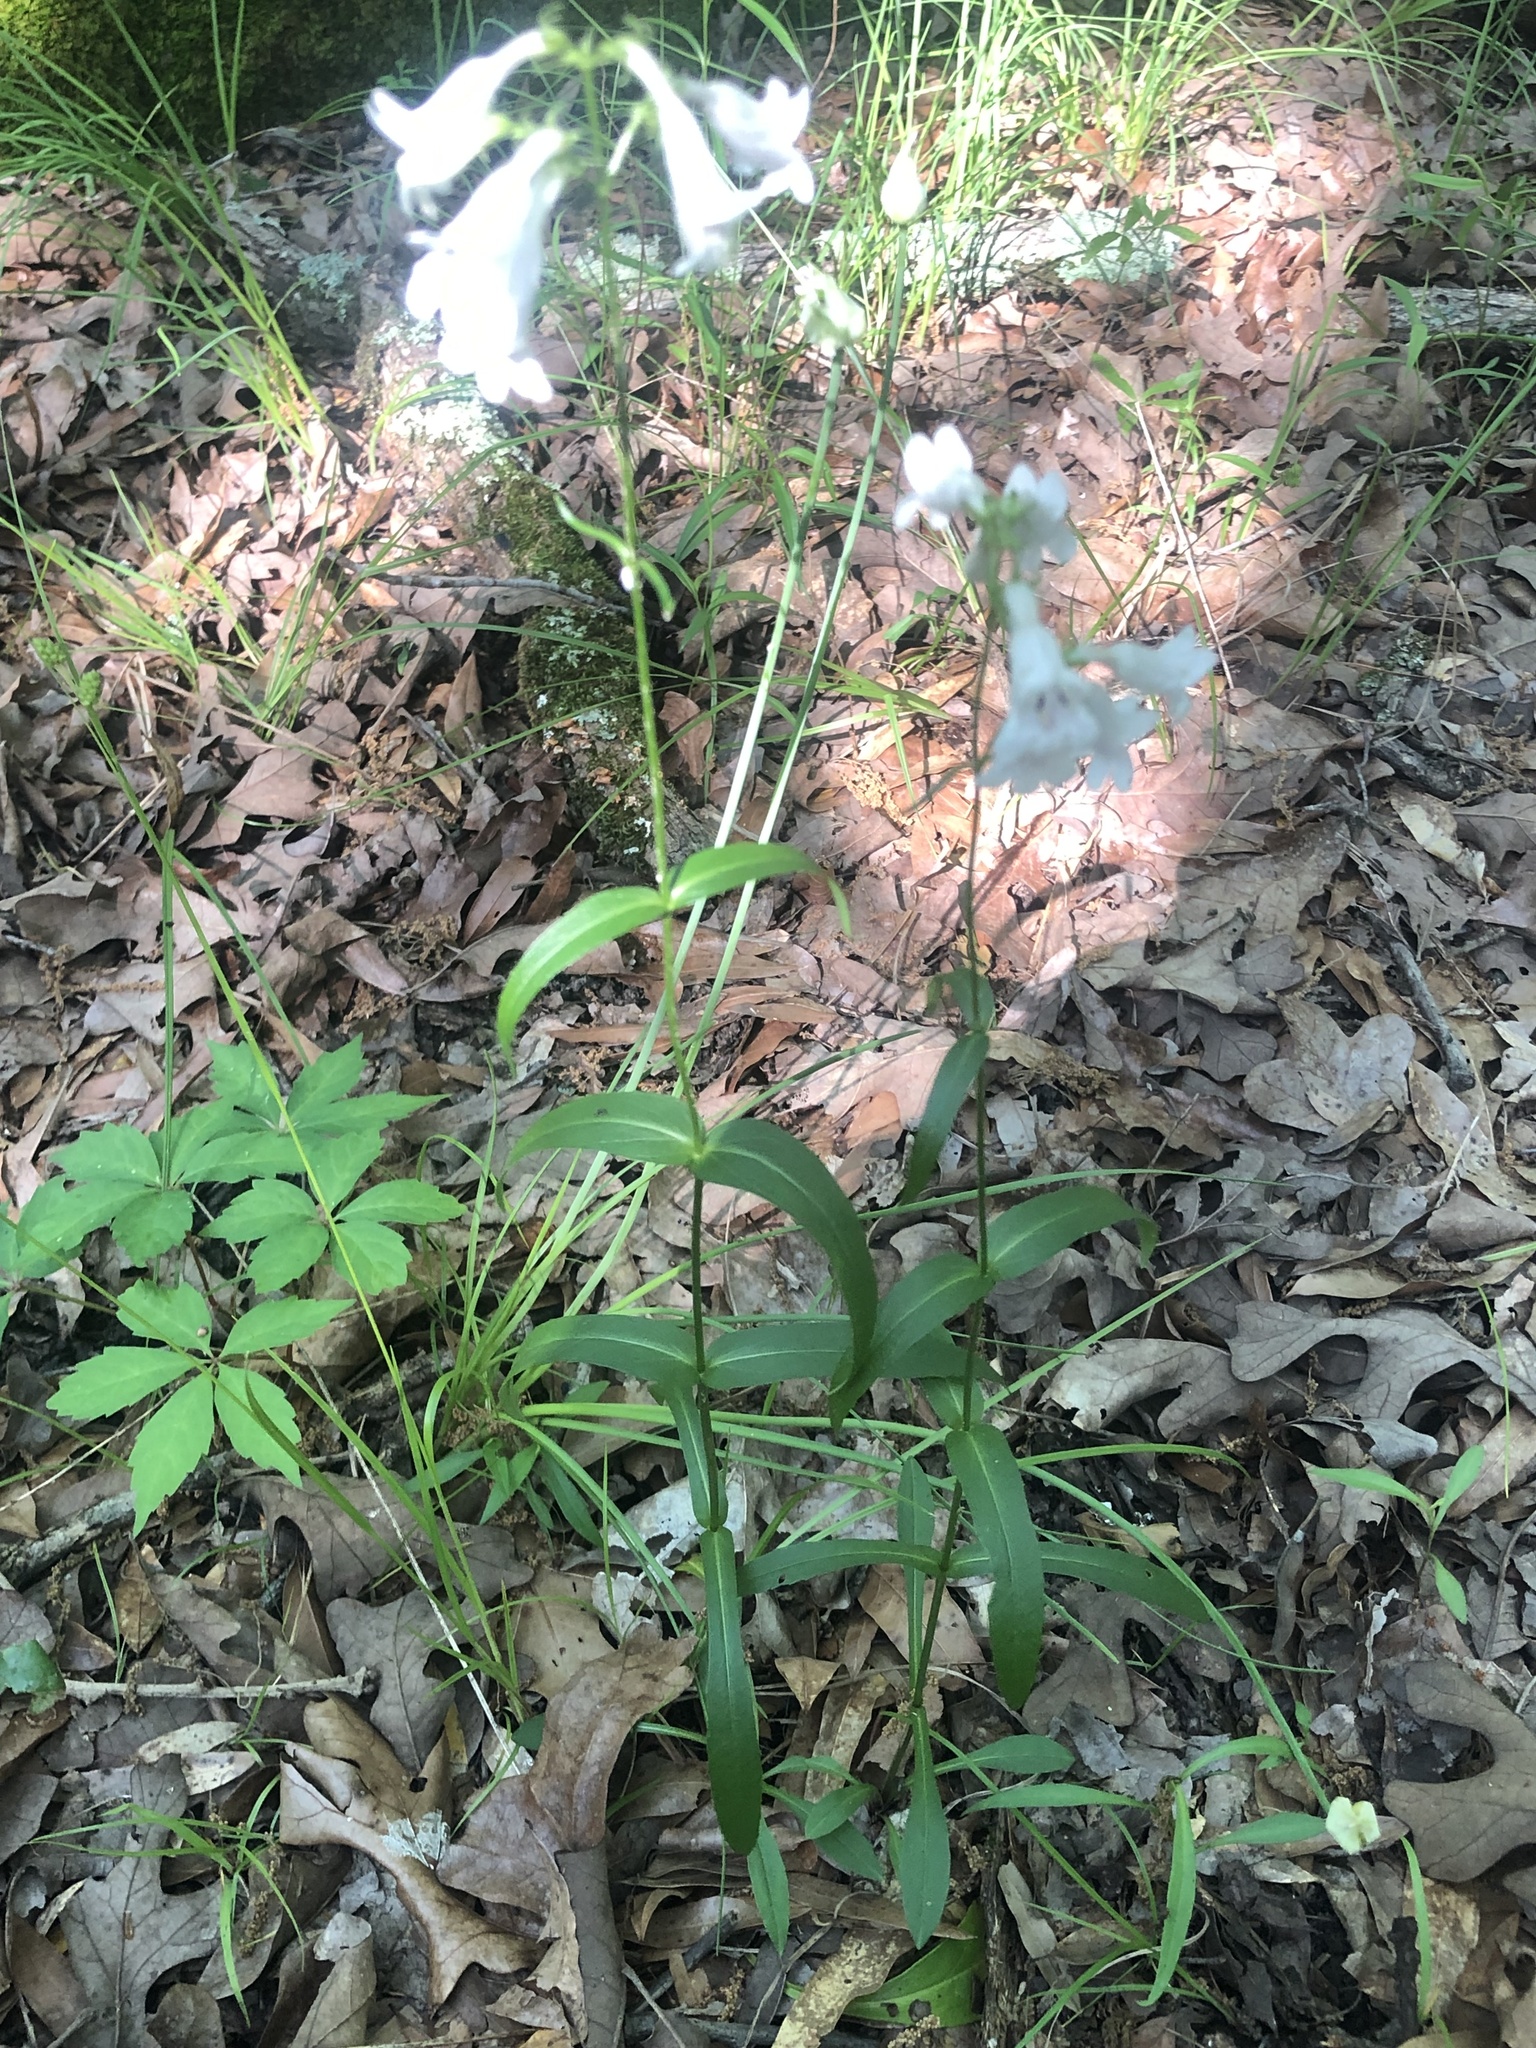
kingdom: Plantae
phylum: Tracheophyta
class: Magnoliopsida
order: Lamiales
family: Plantaginaceae
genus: Penstemon
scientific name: Penstemon digitalis
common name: Foxglove beardtongue
